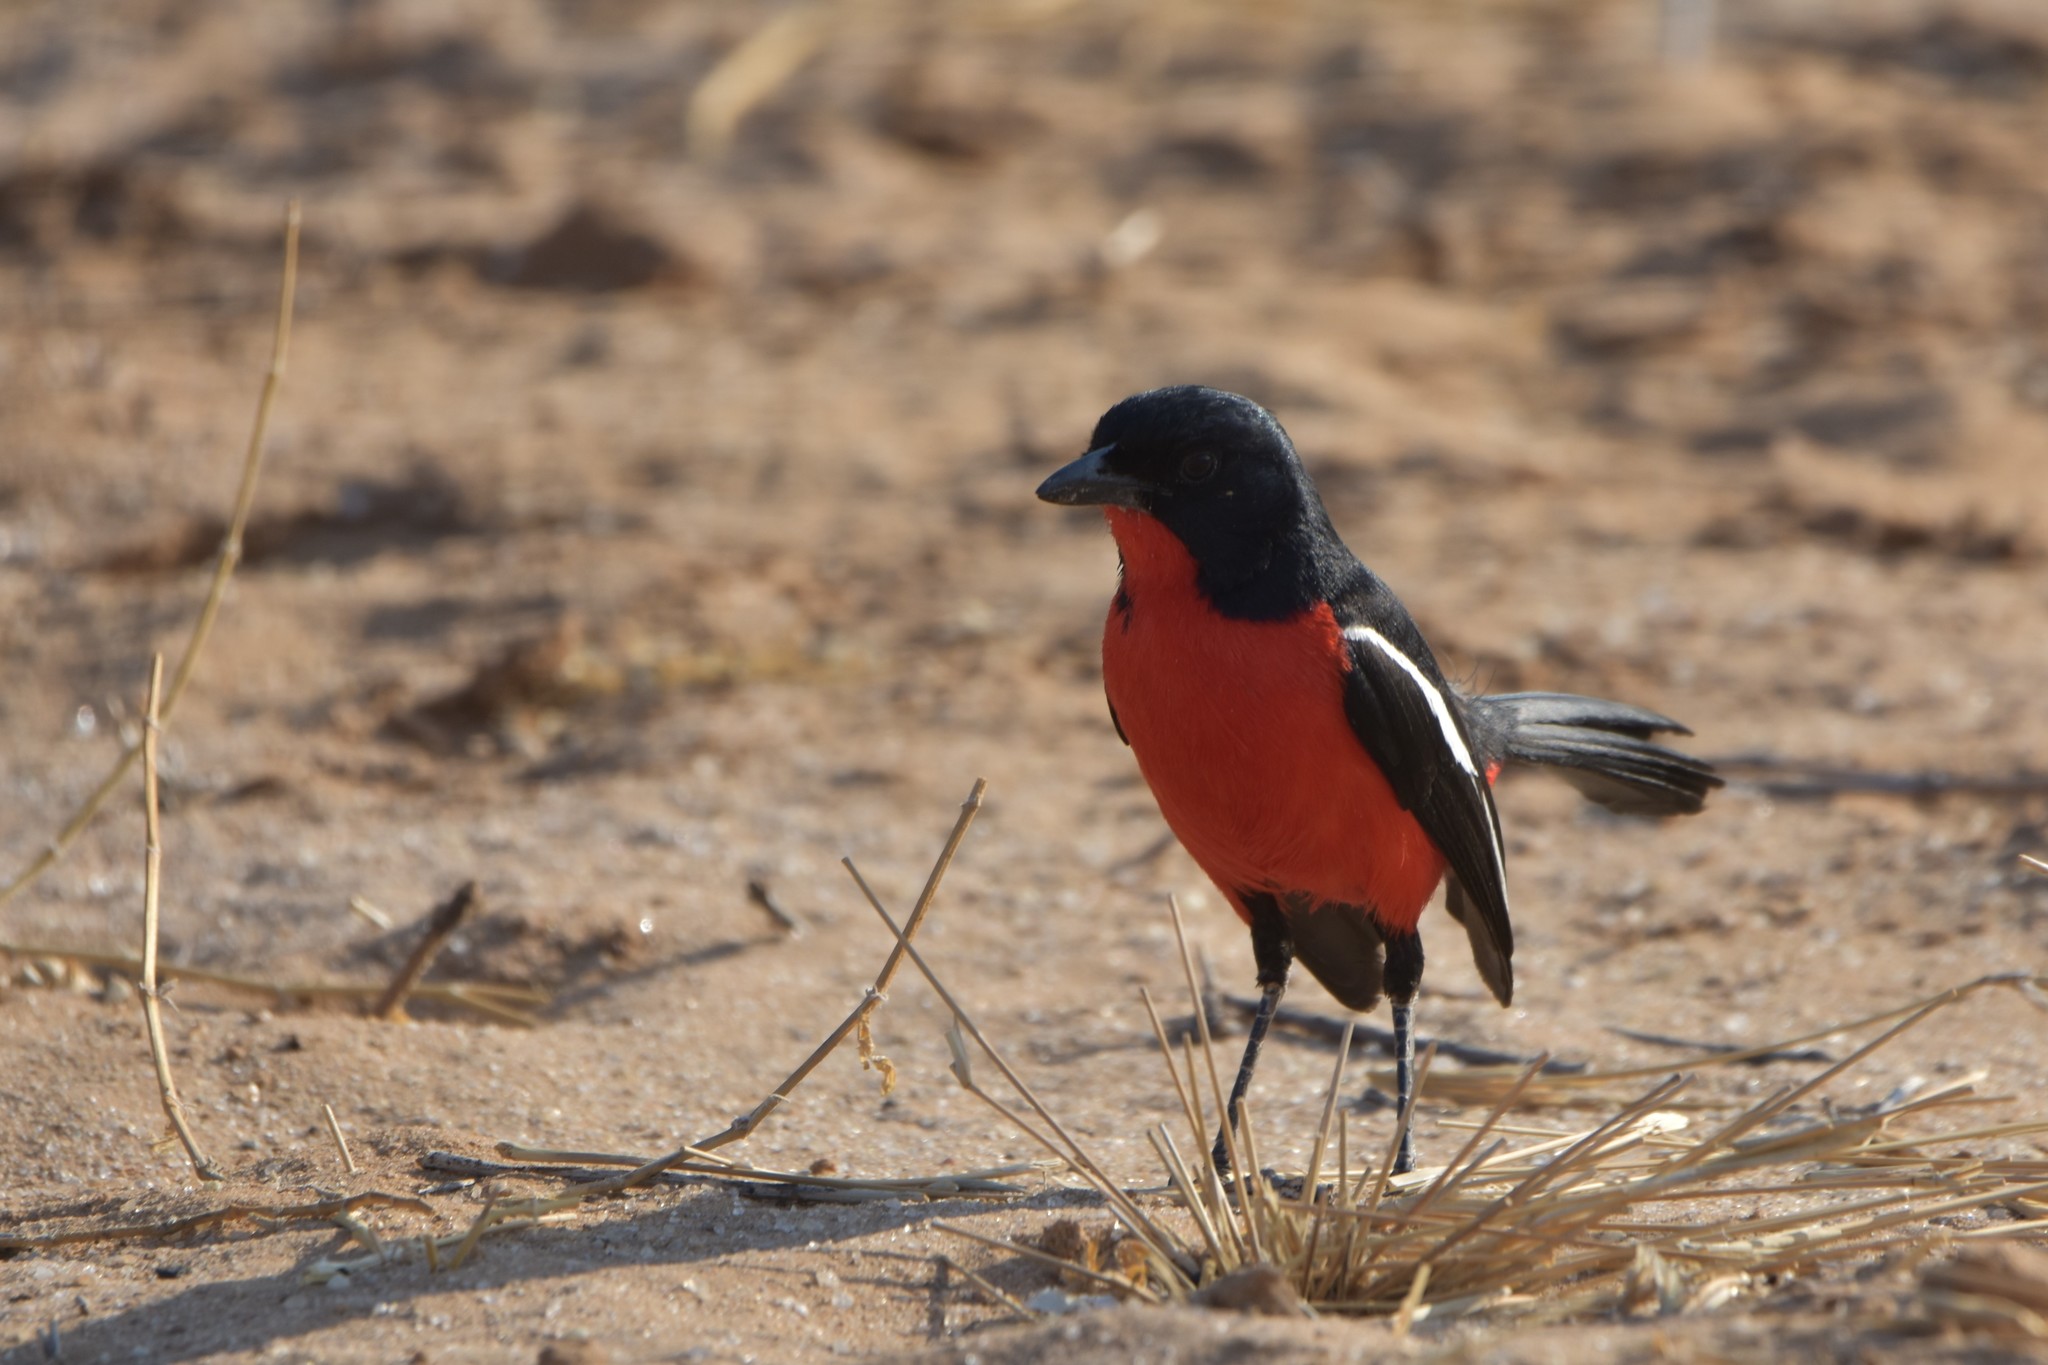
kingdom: Animalia
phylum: Chordata
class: Aves
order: Passeriformes
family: Malaconotidae
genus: Laniarius
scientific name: Laniarius atrococcineus
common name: Crimson-breasted shrike
